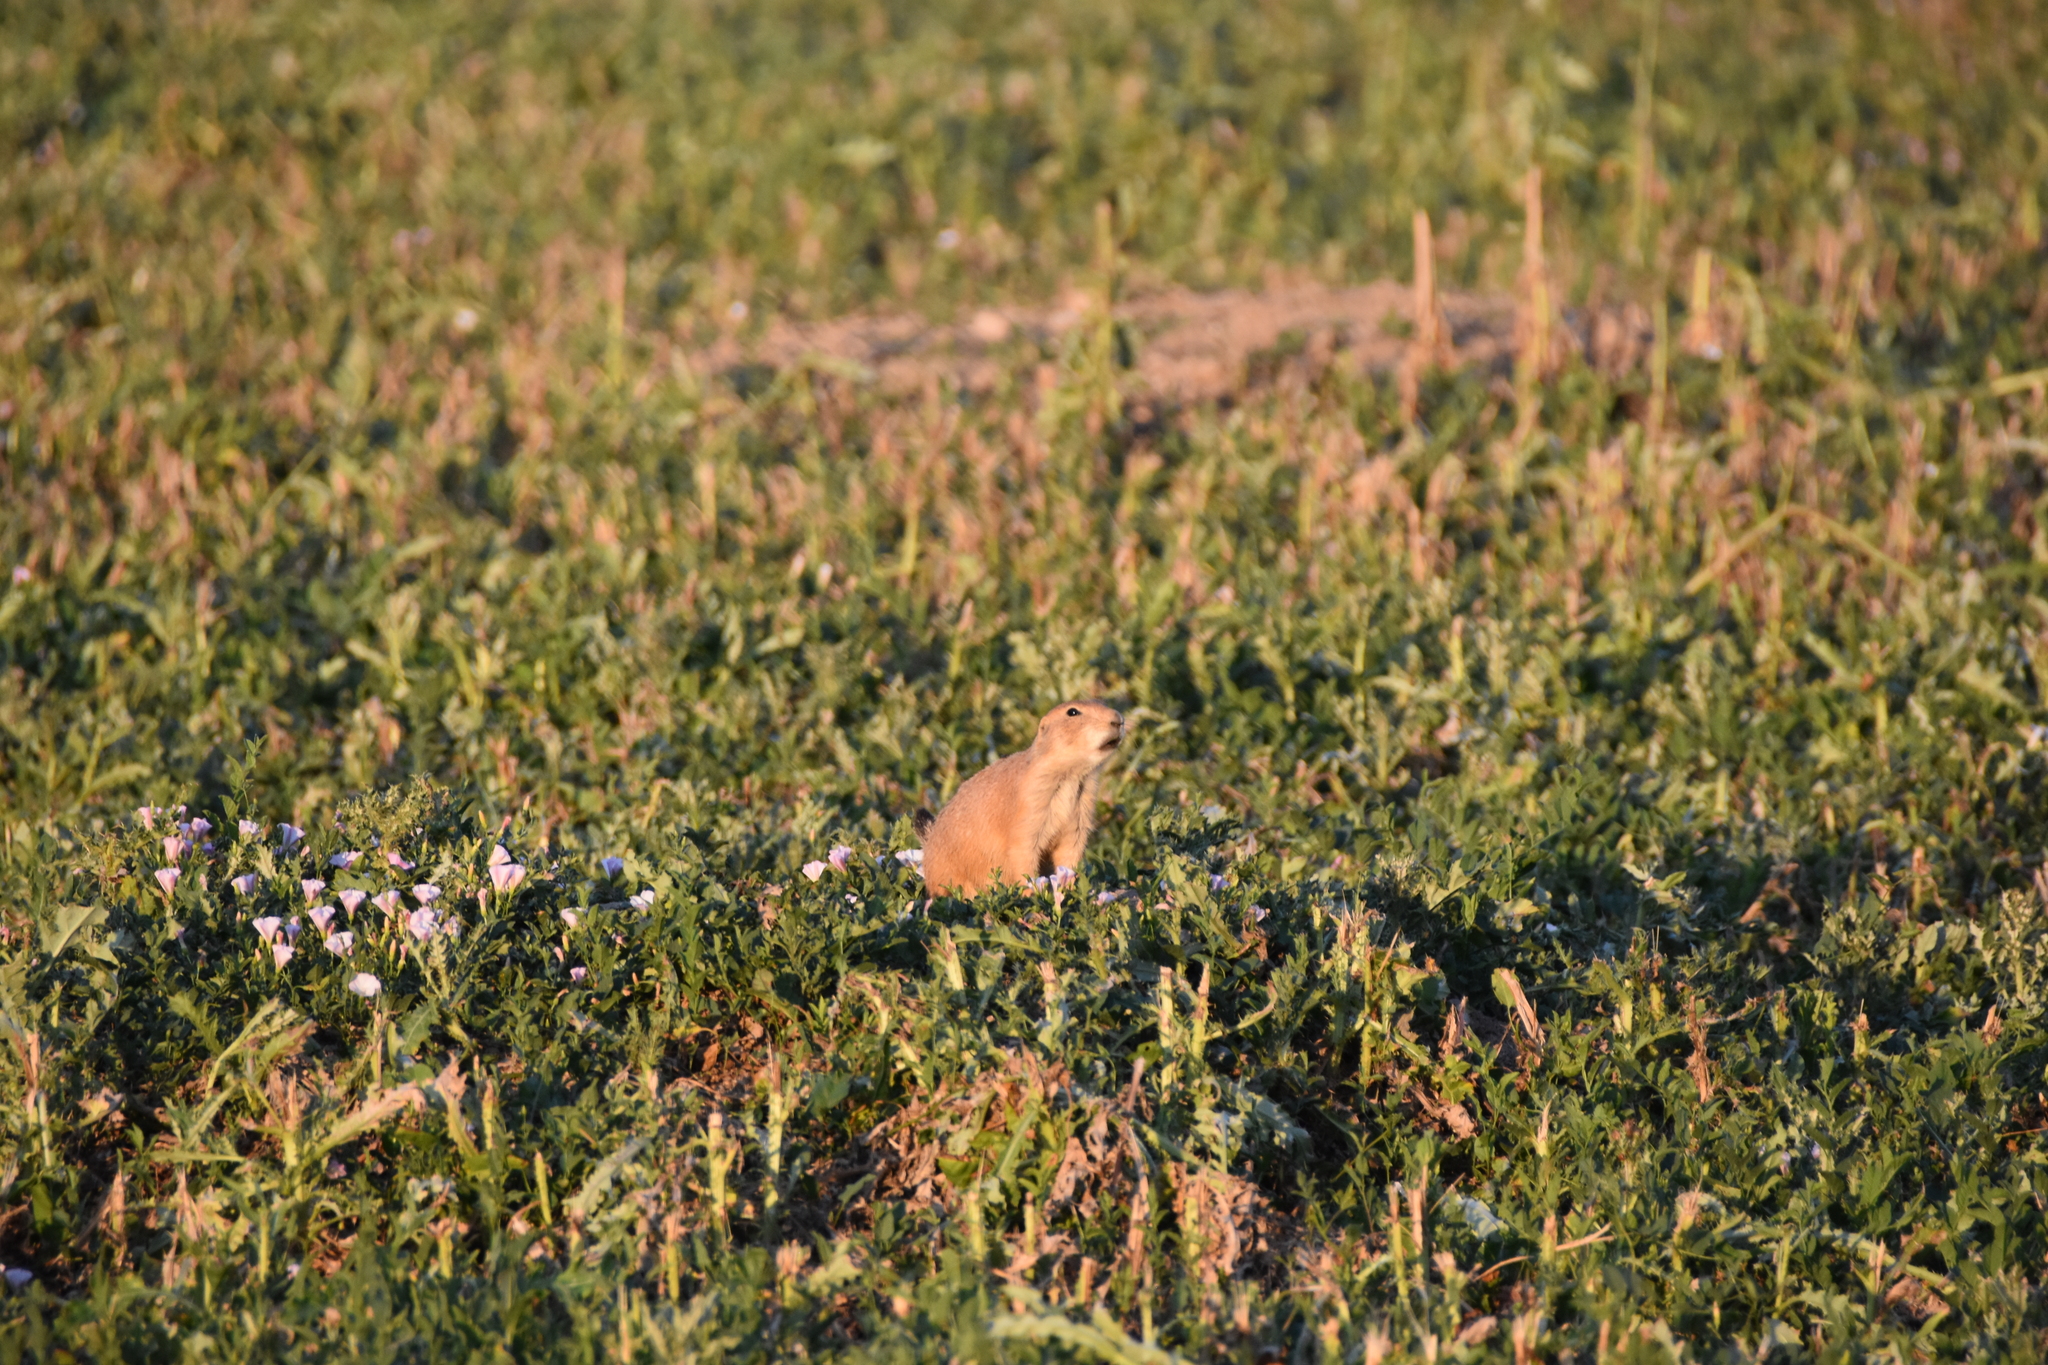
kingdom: Animalia
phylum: Chordata
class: Mammalia
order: Rodentia
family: Sciuridae
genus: Cynomys
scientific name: Cynomys ludovicianus
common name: Black-tailed prairie dog
